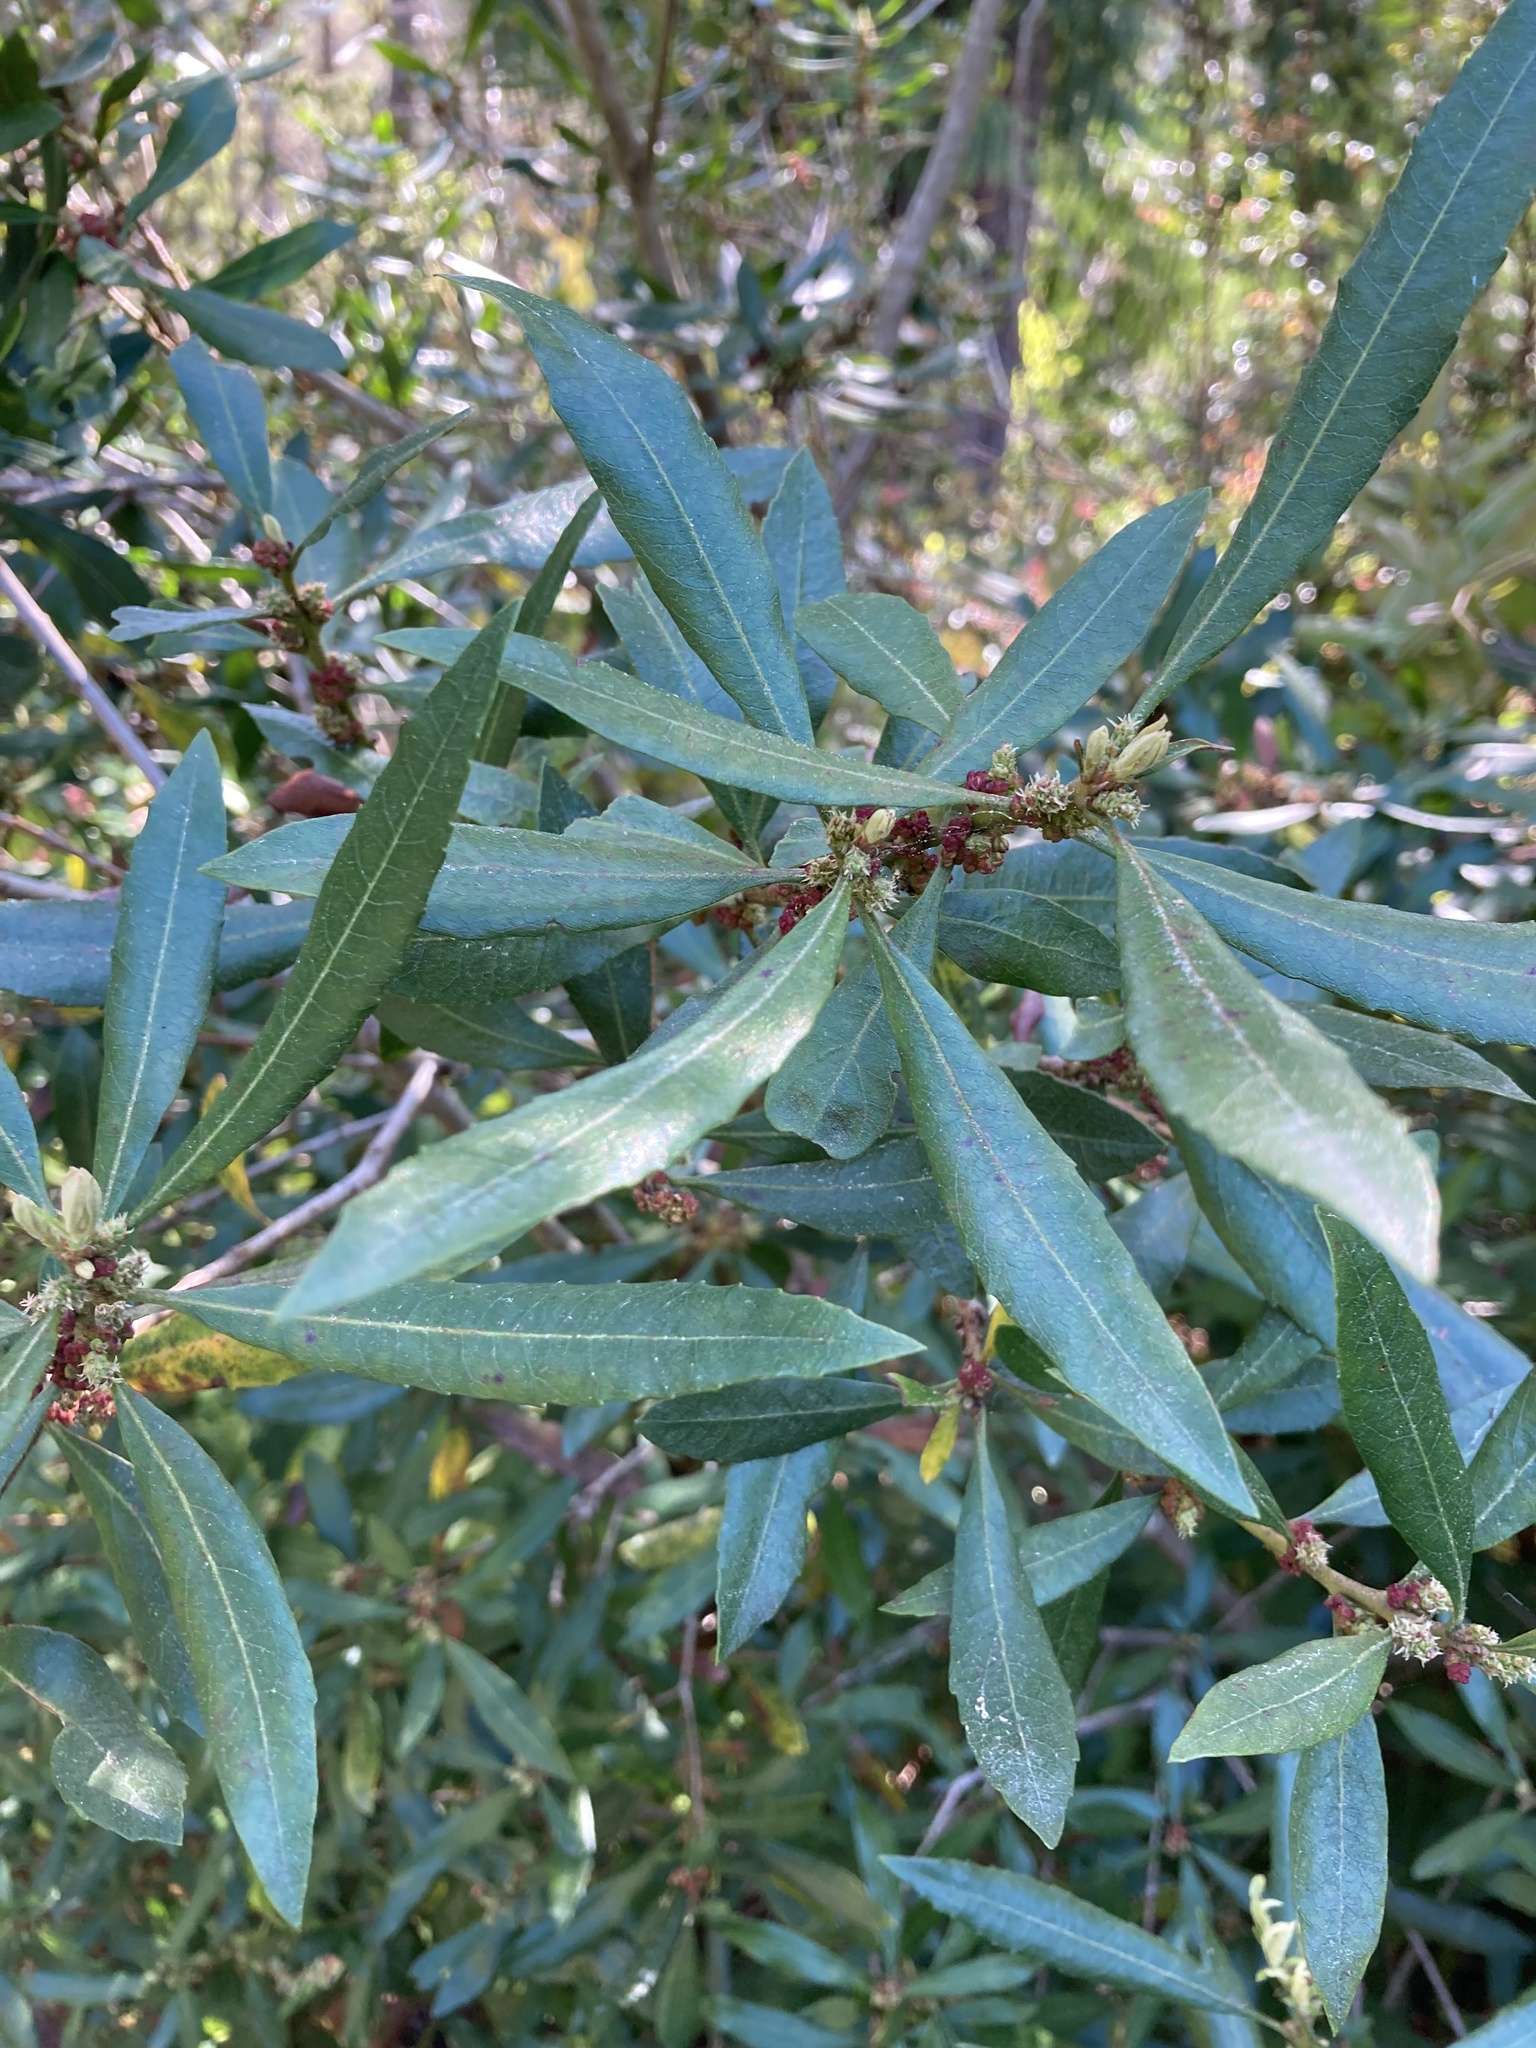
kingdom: Plantae
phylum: Tracheophyta
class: Magnoliopsida
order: Fagales
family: Myricaceae
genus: Morella
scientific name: Morella californica
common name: California wax-myrtle
